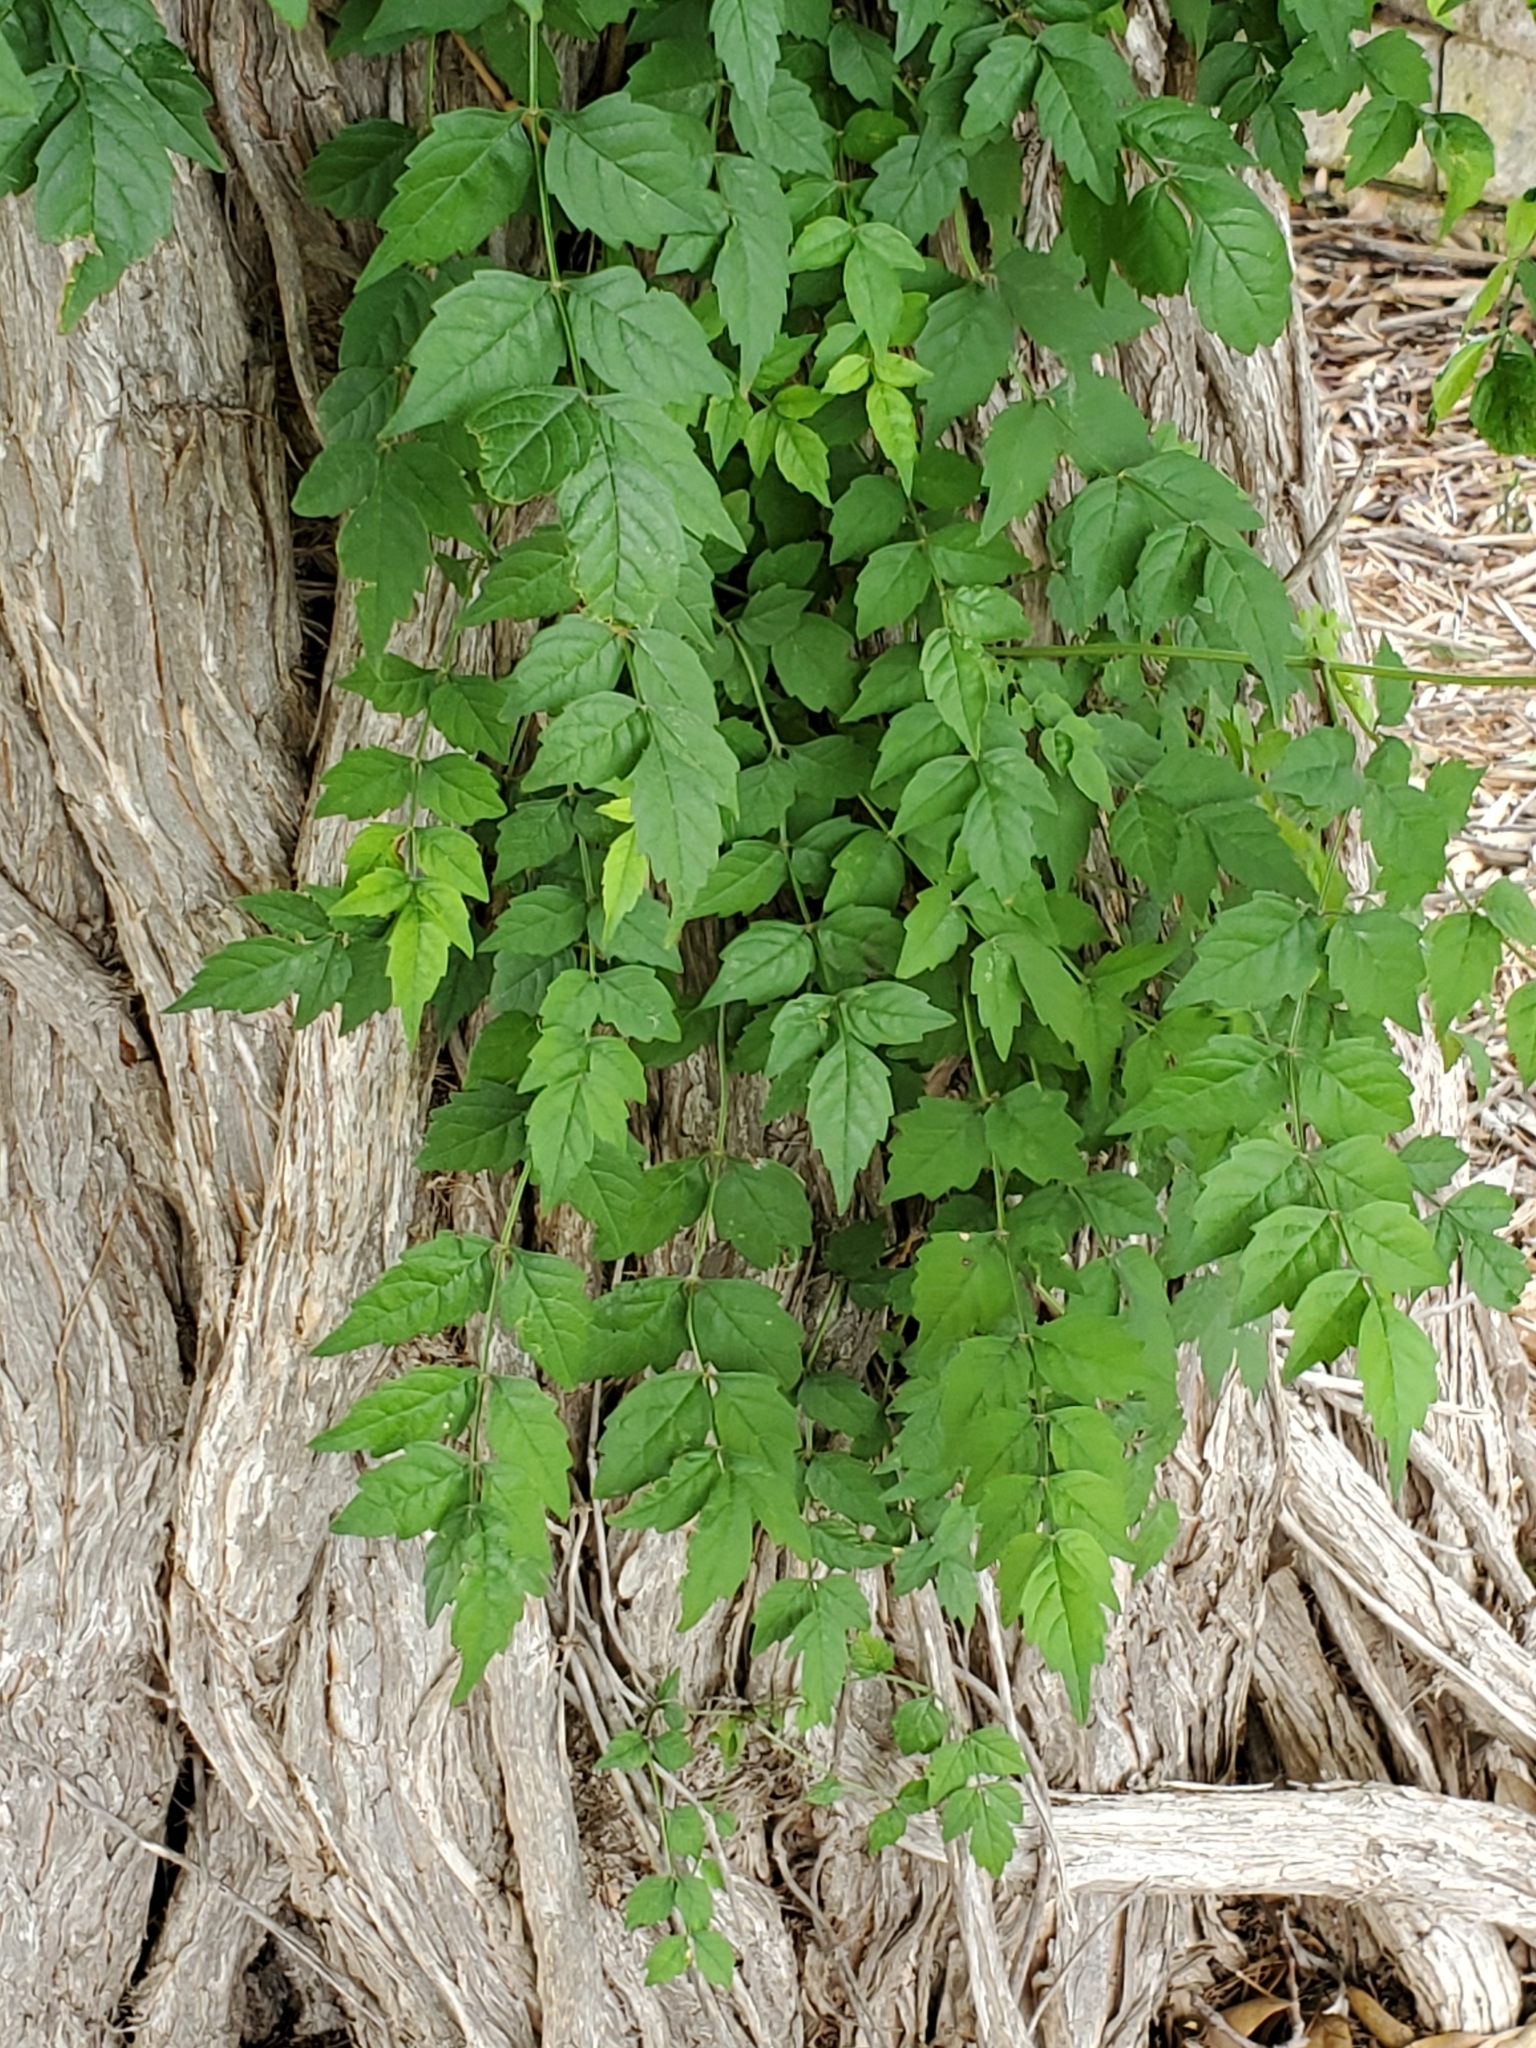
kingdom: Plantae
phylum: Tracheophyta
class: Magnoliopsida
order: Lamiales
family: Bignoniaceae
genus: Campsis
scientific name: Campsis radicans
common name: Trumpet-creeper
